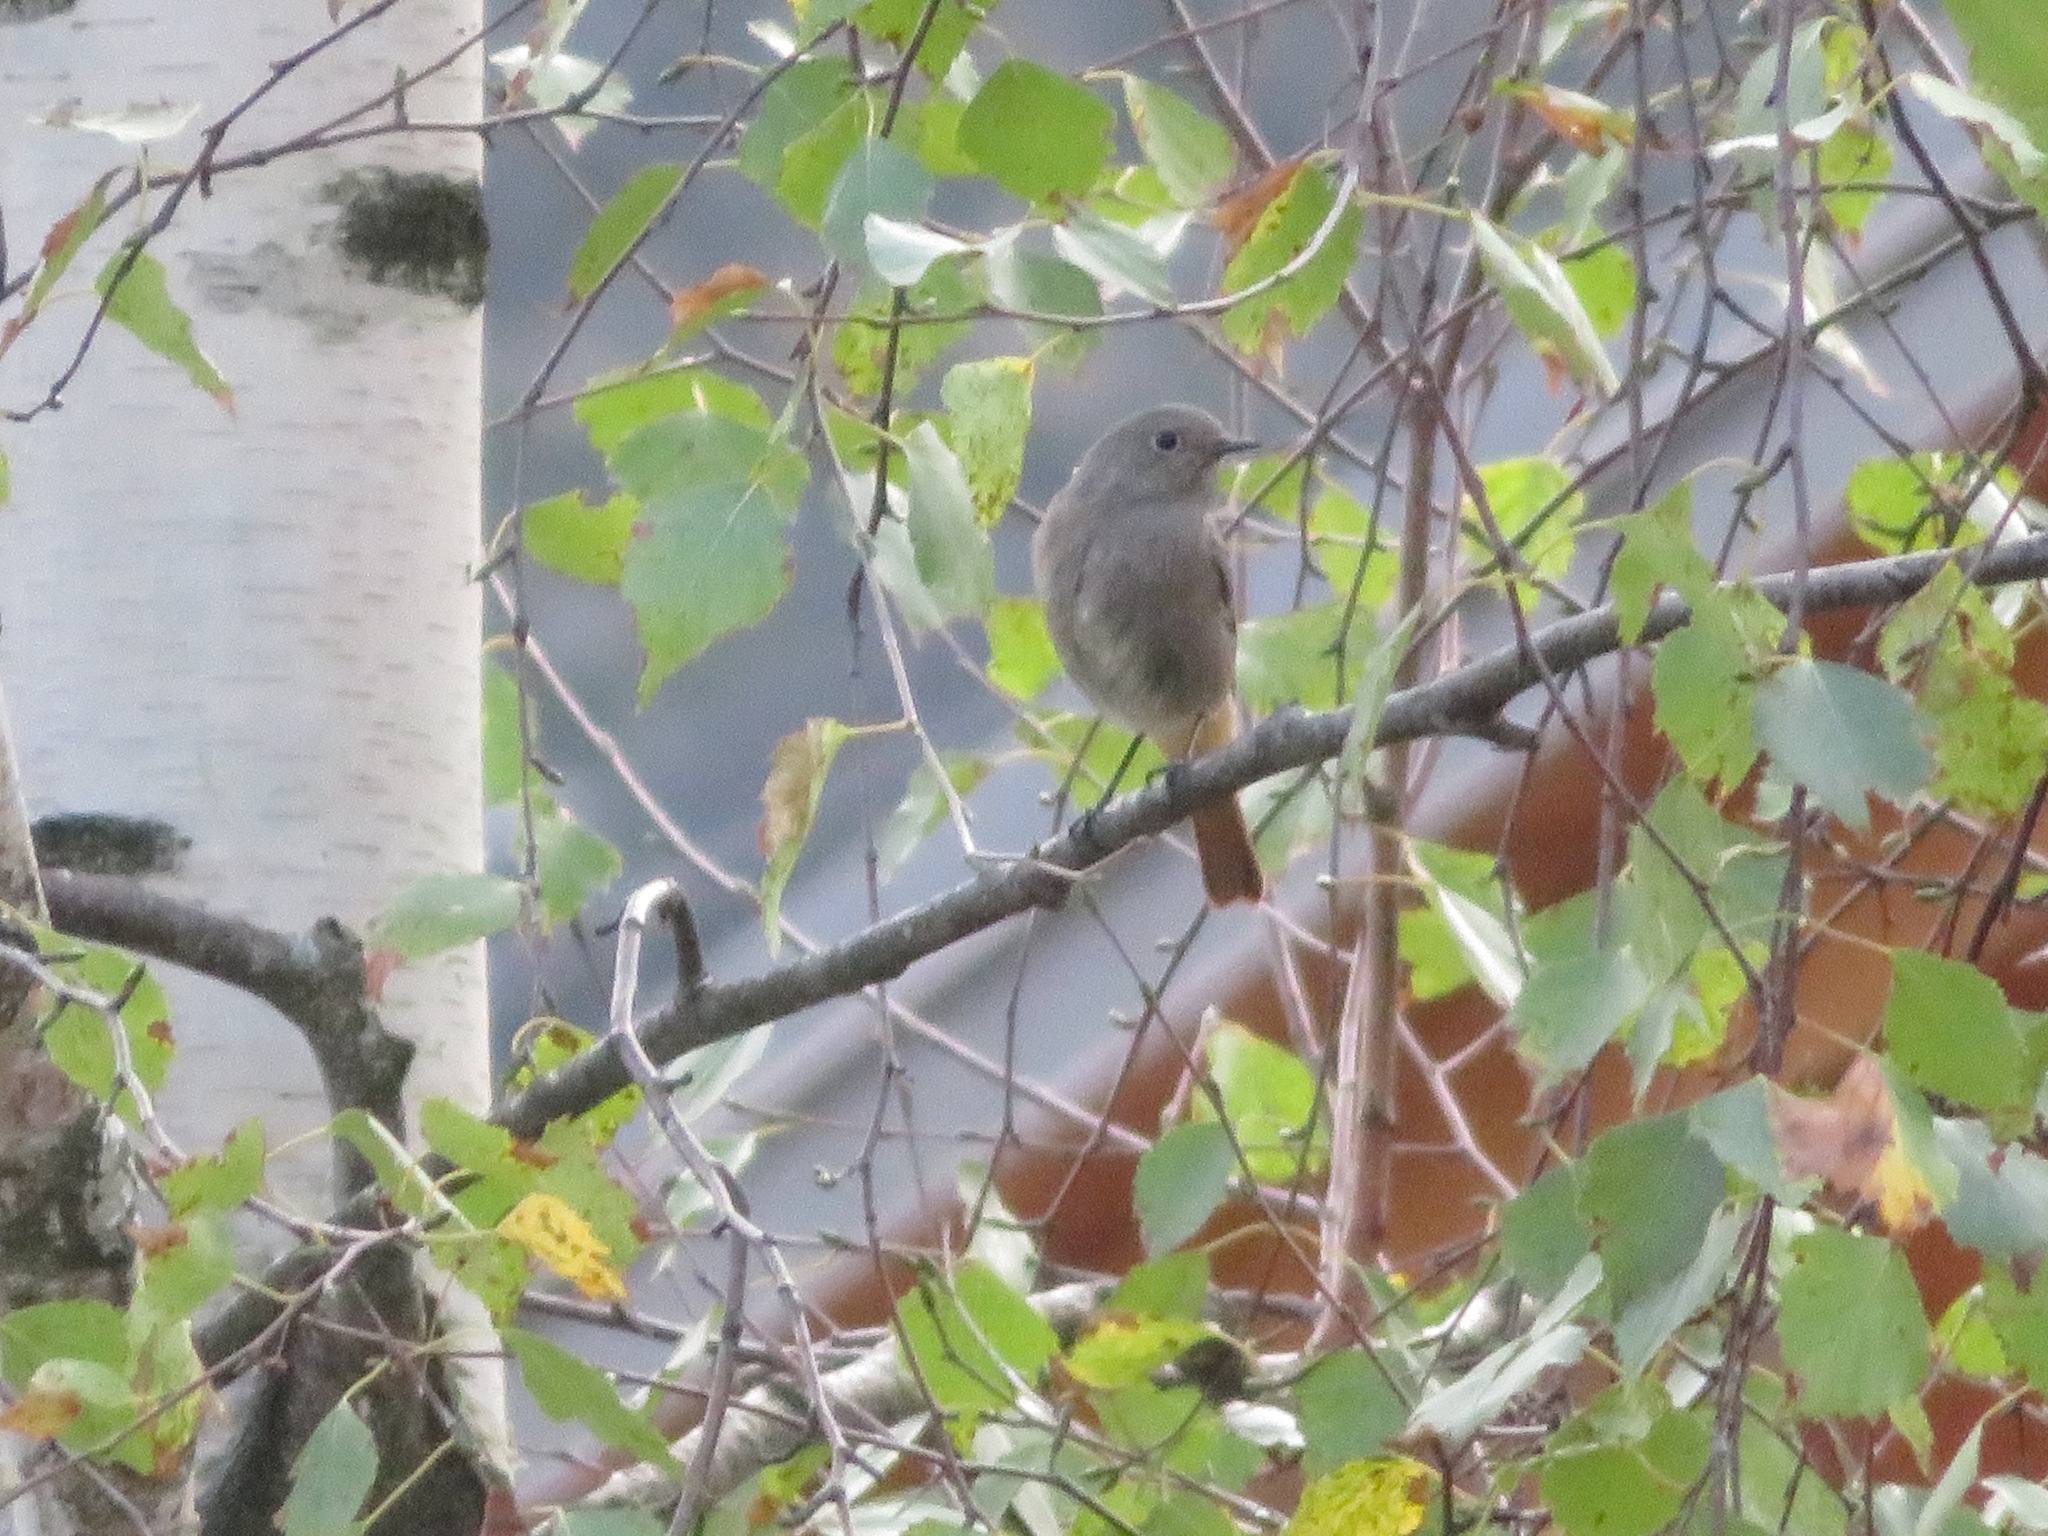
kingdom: Animalia
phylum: Chordata
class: Aves
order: Passeriformes
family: Muscicapidae
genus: Phoenicurus
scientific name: Phoenicurus ochruros
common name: Black redstart
